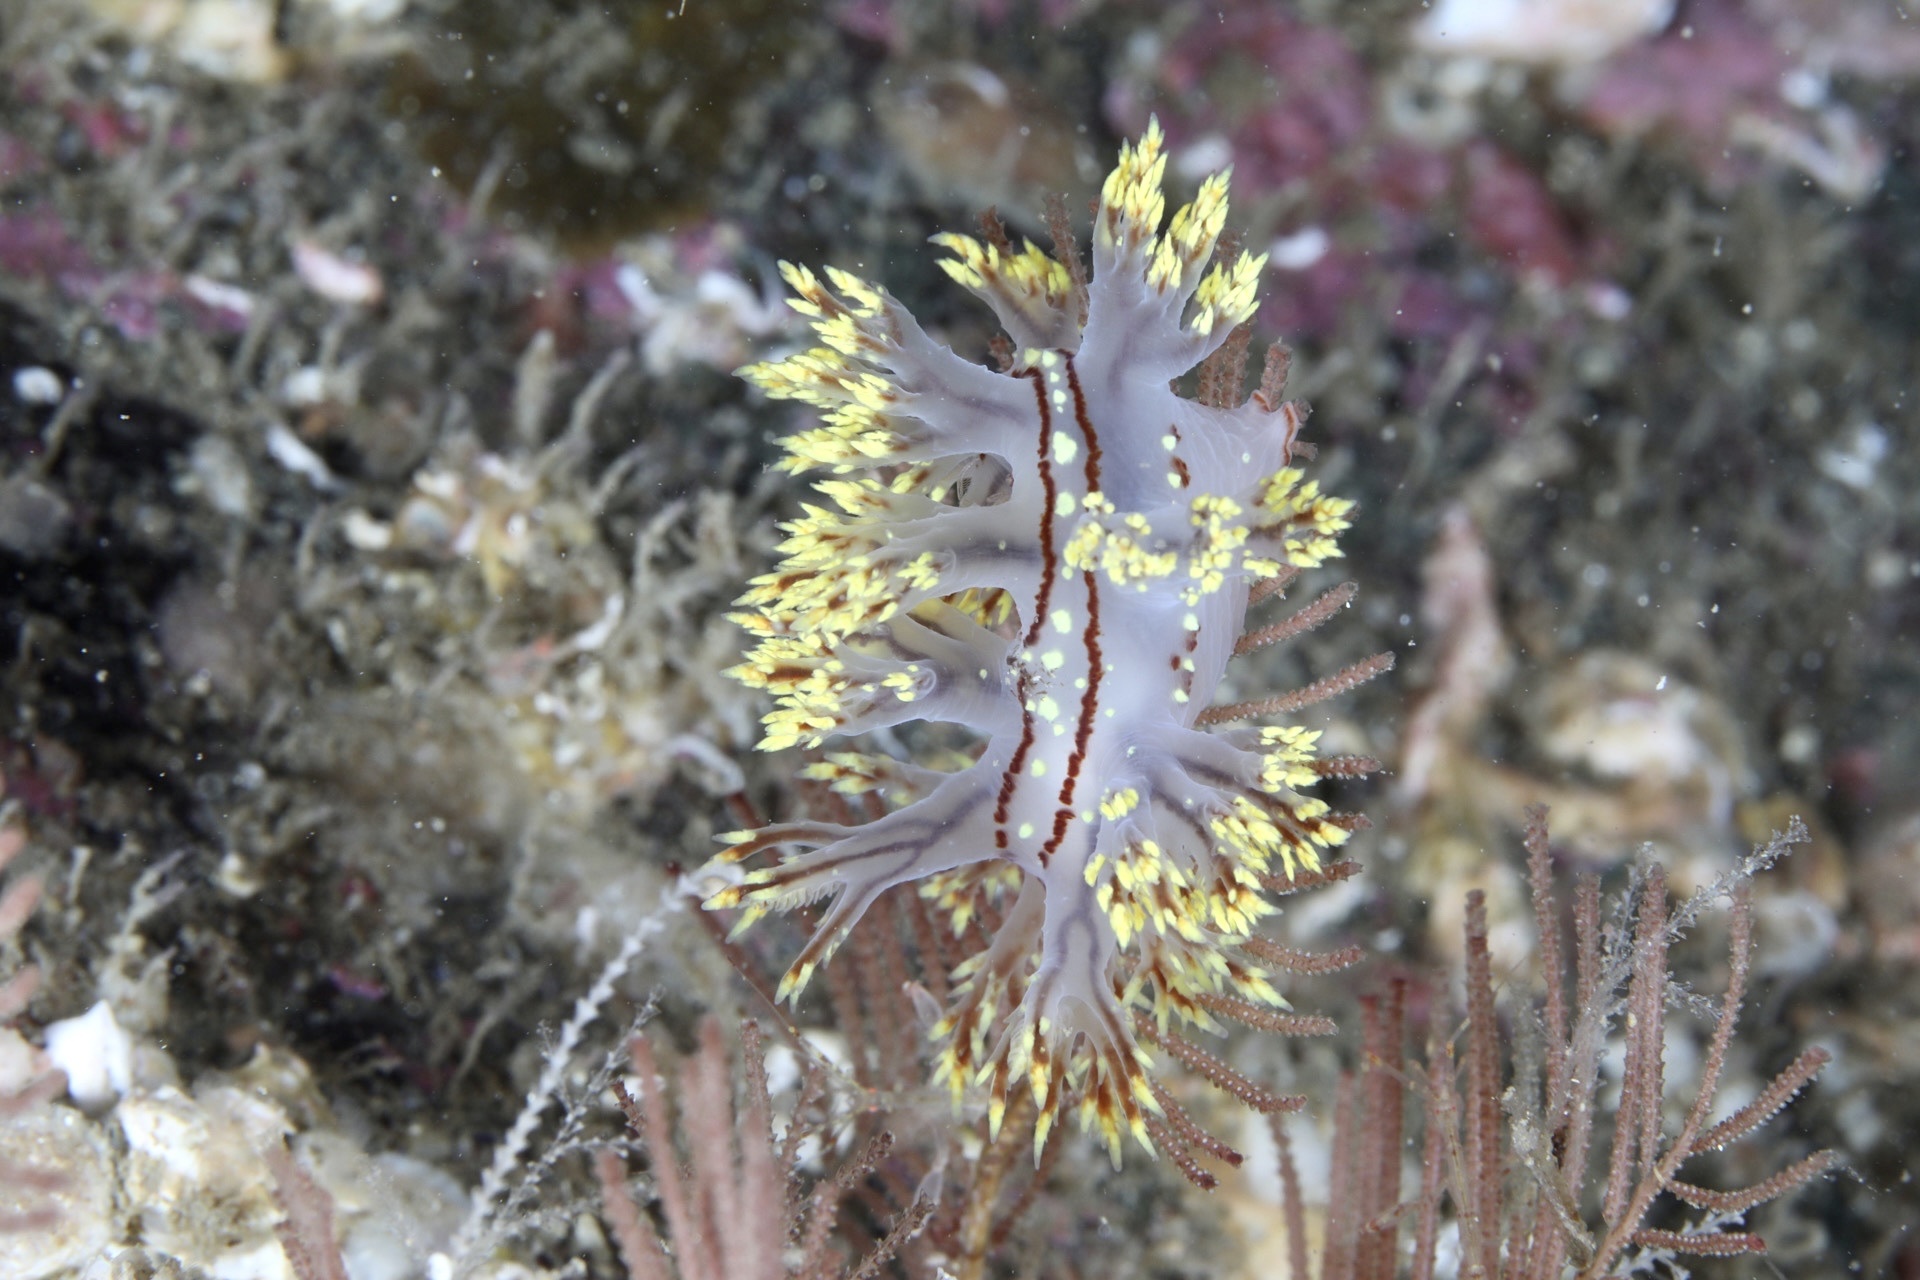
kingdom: Animalia
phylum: Mollusca
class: Gastropoda
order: Nudibranchia
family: Dendronotidae
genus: Dendronotus
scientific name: Dendronotus yrjargul
